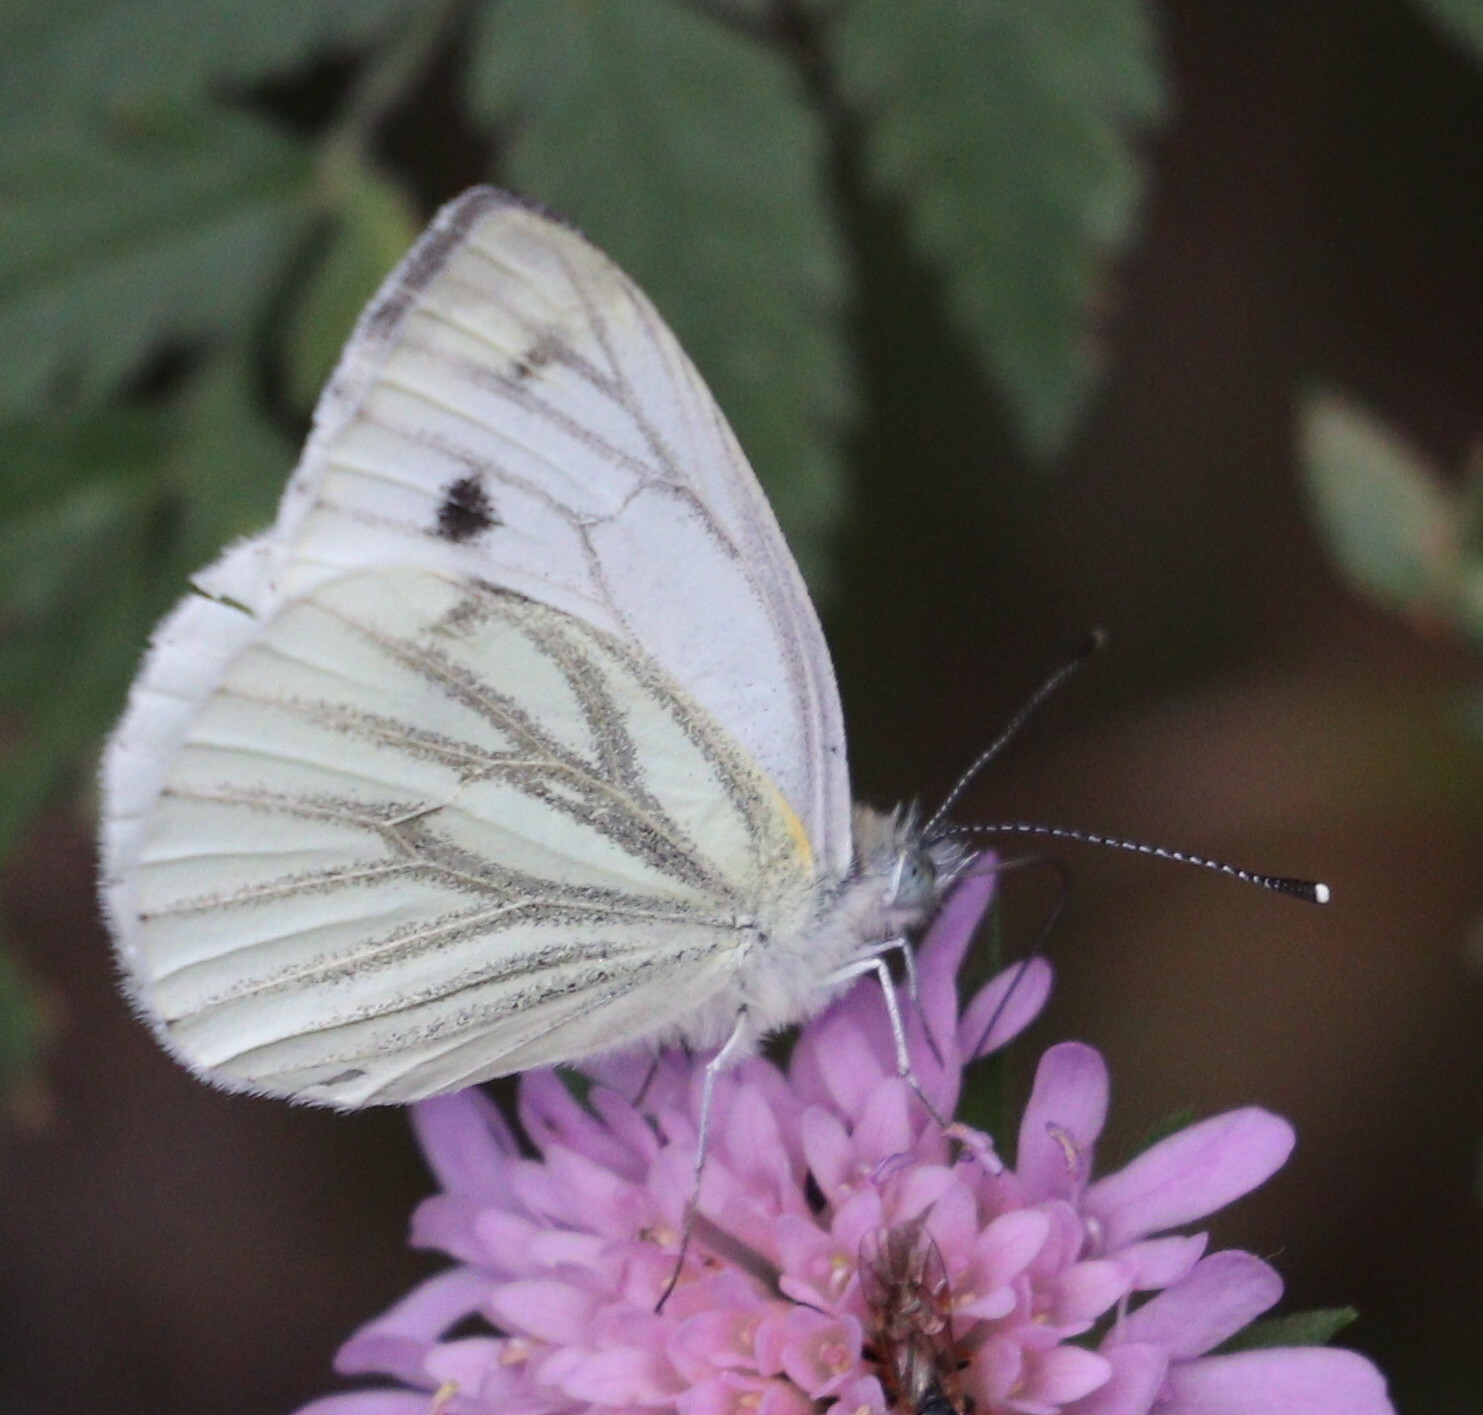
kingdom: Animalia
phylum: Arthropoda
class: Insecta
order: Lepidoptera
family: Pieridae
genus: Pieris
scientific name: Pieris napi
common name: Green-veined white
